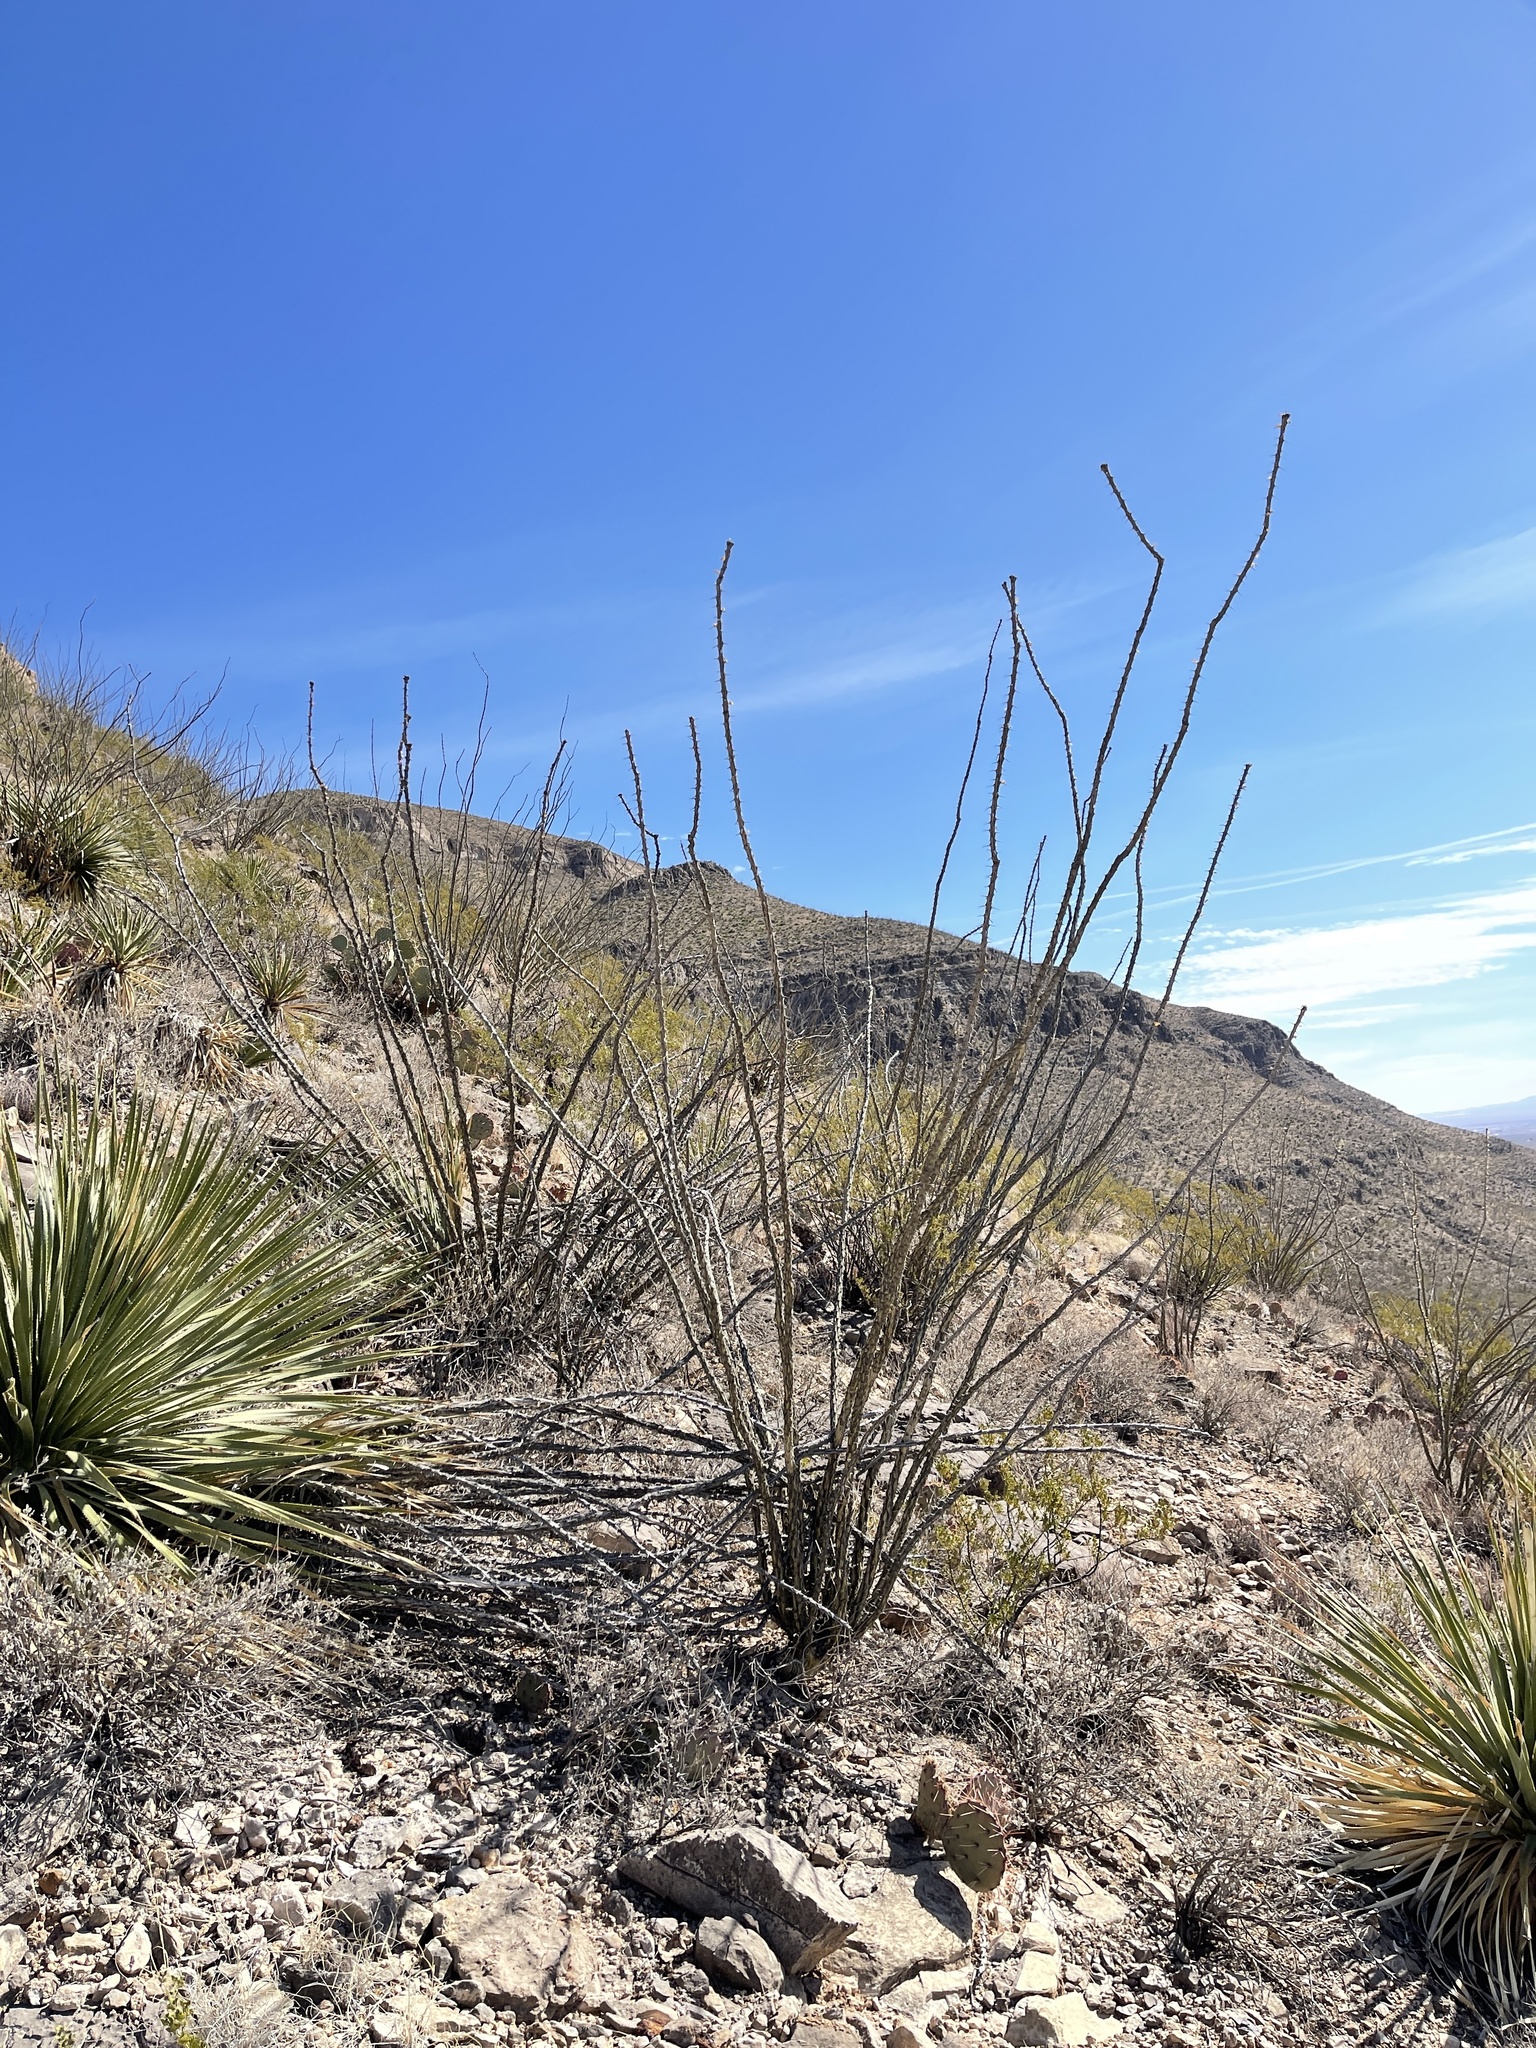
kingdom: Plantae
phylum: Tracheophyta
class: Magnoliopsida
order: Ericales
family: Fouquieriaceae
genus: Fouquieria
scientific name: Fouquieria splendens
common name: Vine-cactus
